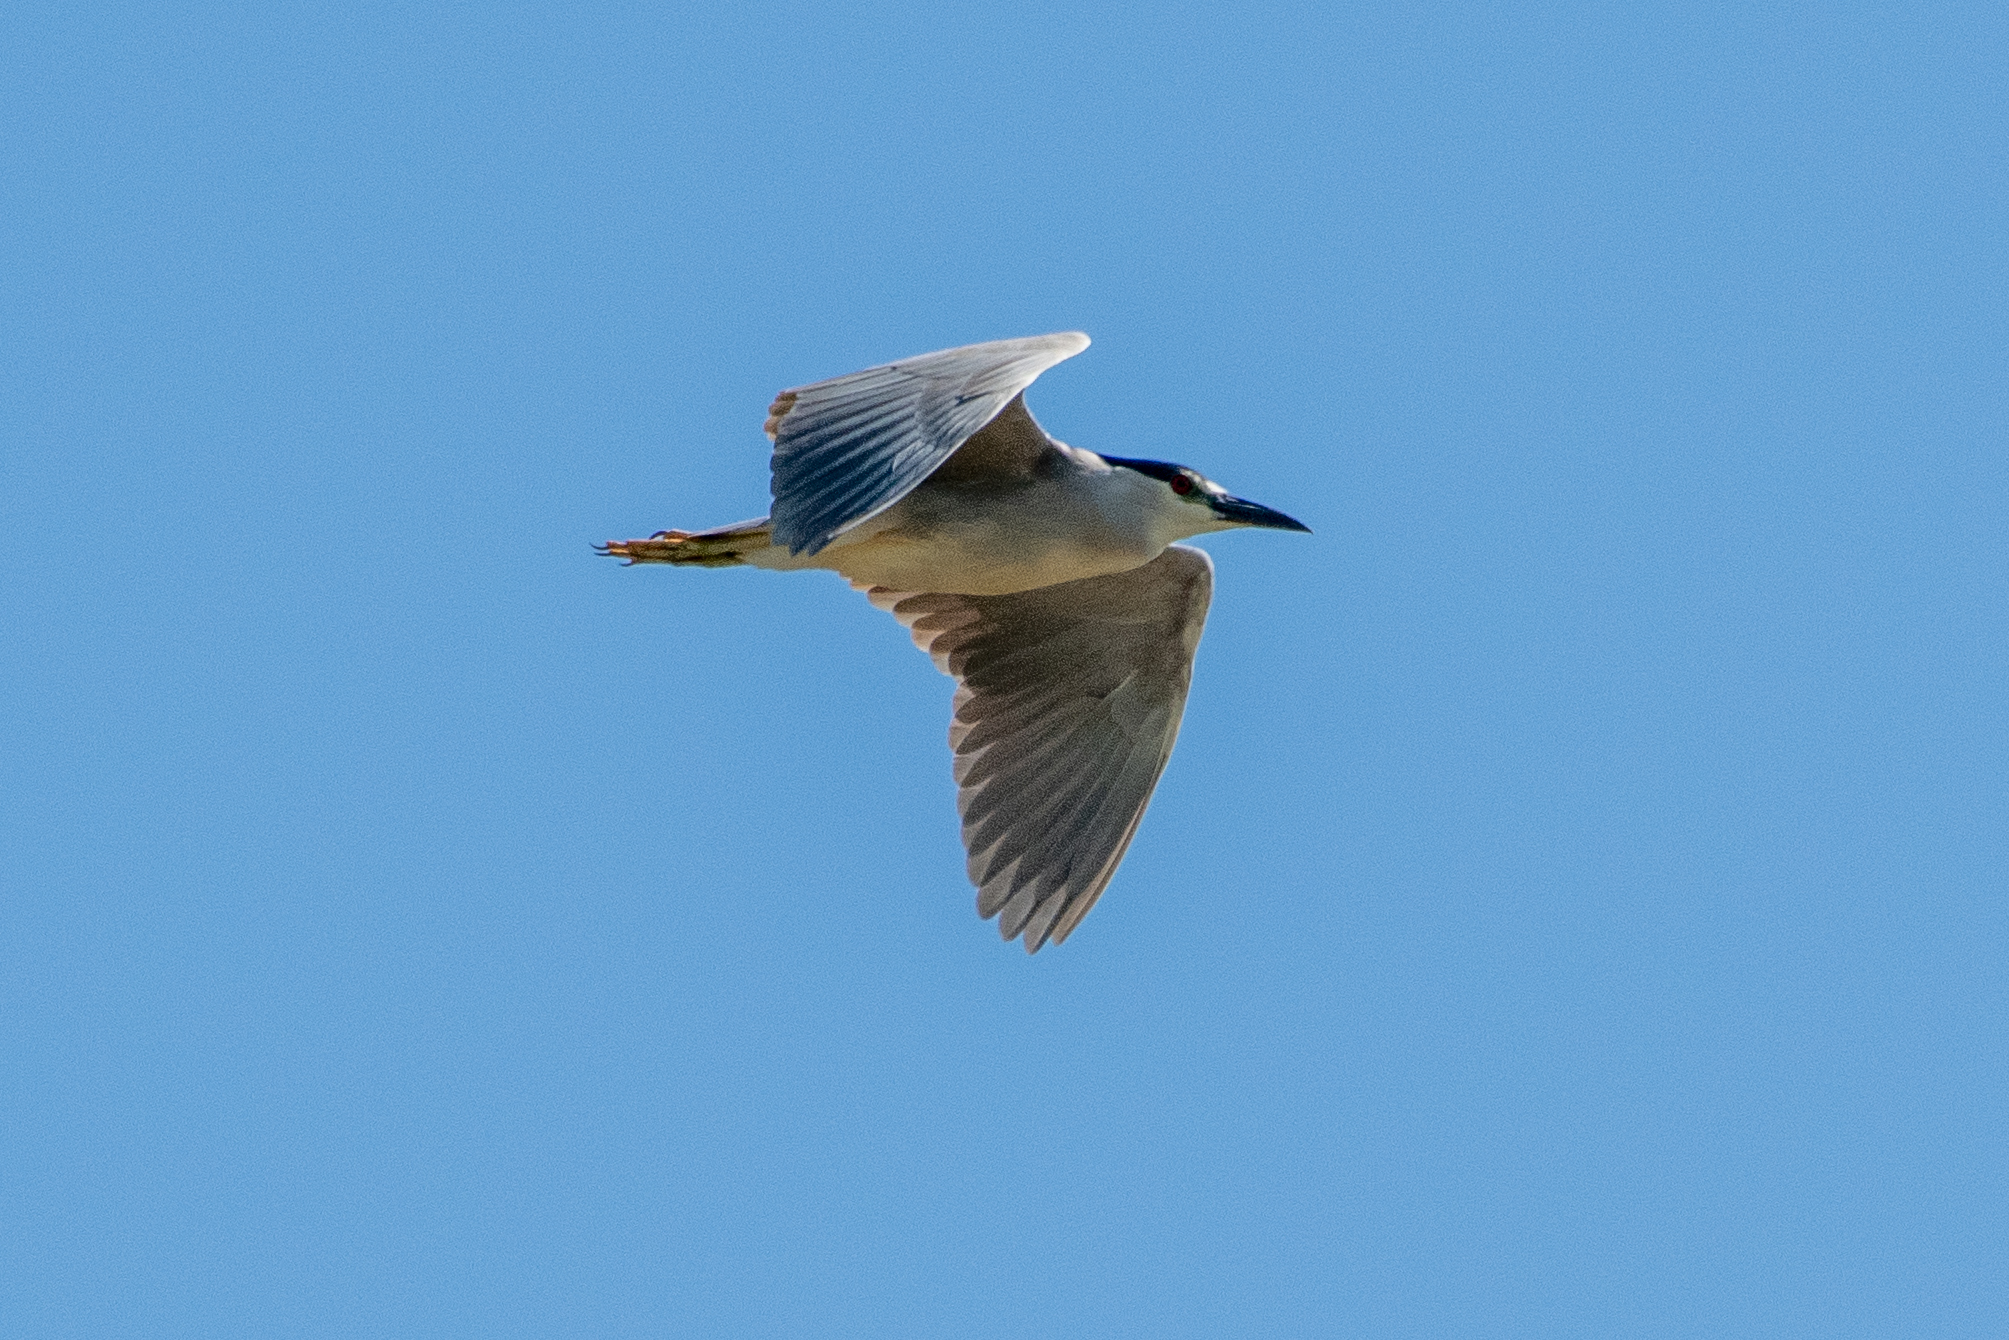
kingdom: Animalia
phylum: Chordata
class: Aves
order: Pelecaniformes
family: Ardeidae
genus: Nycticorax
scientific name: Nycticorax nycticorax
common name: Black-crowned night heron
